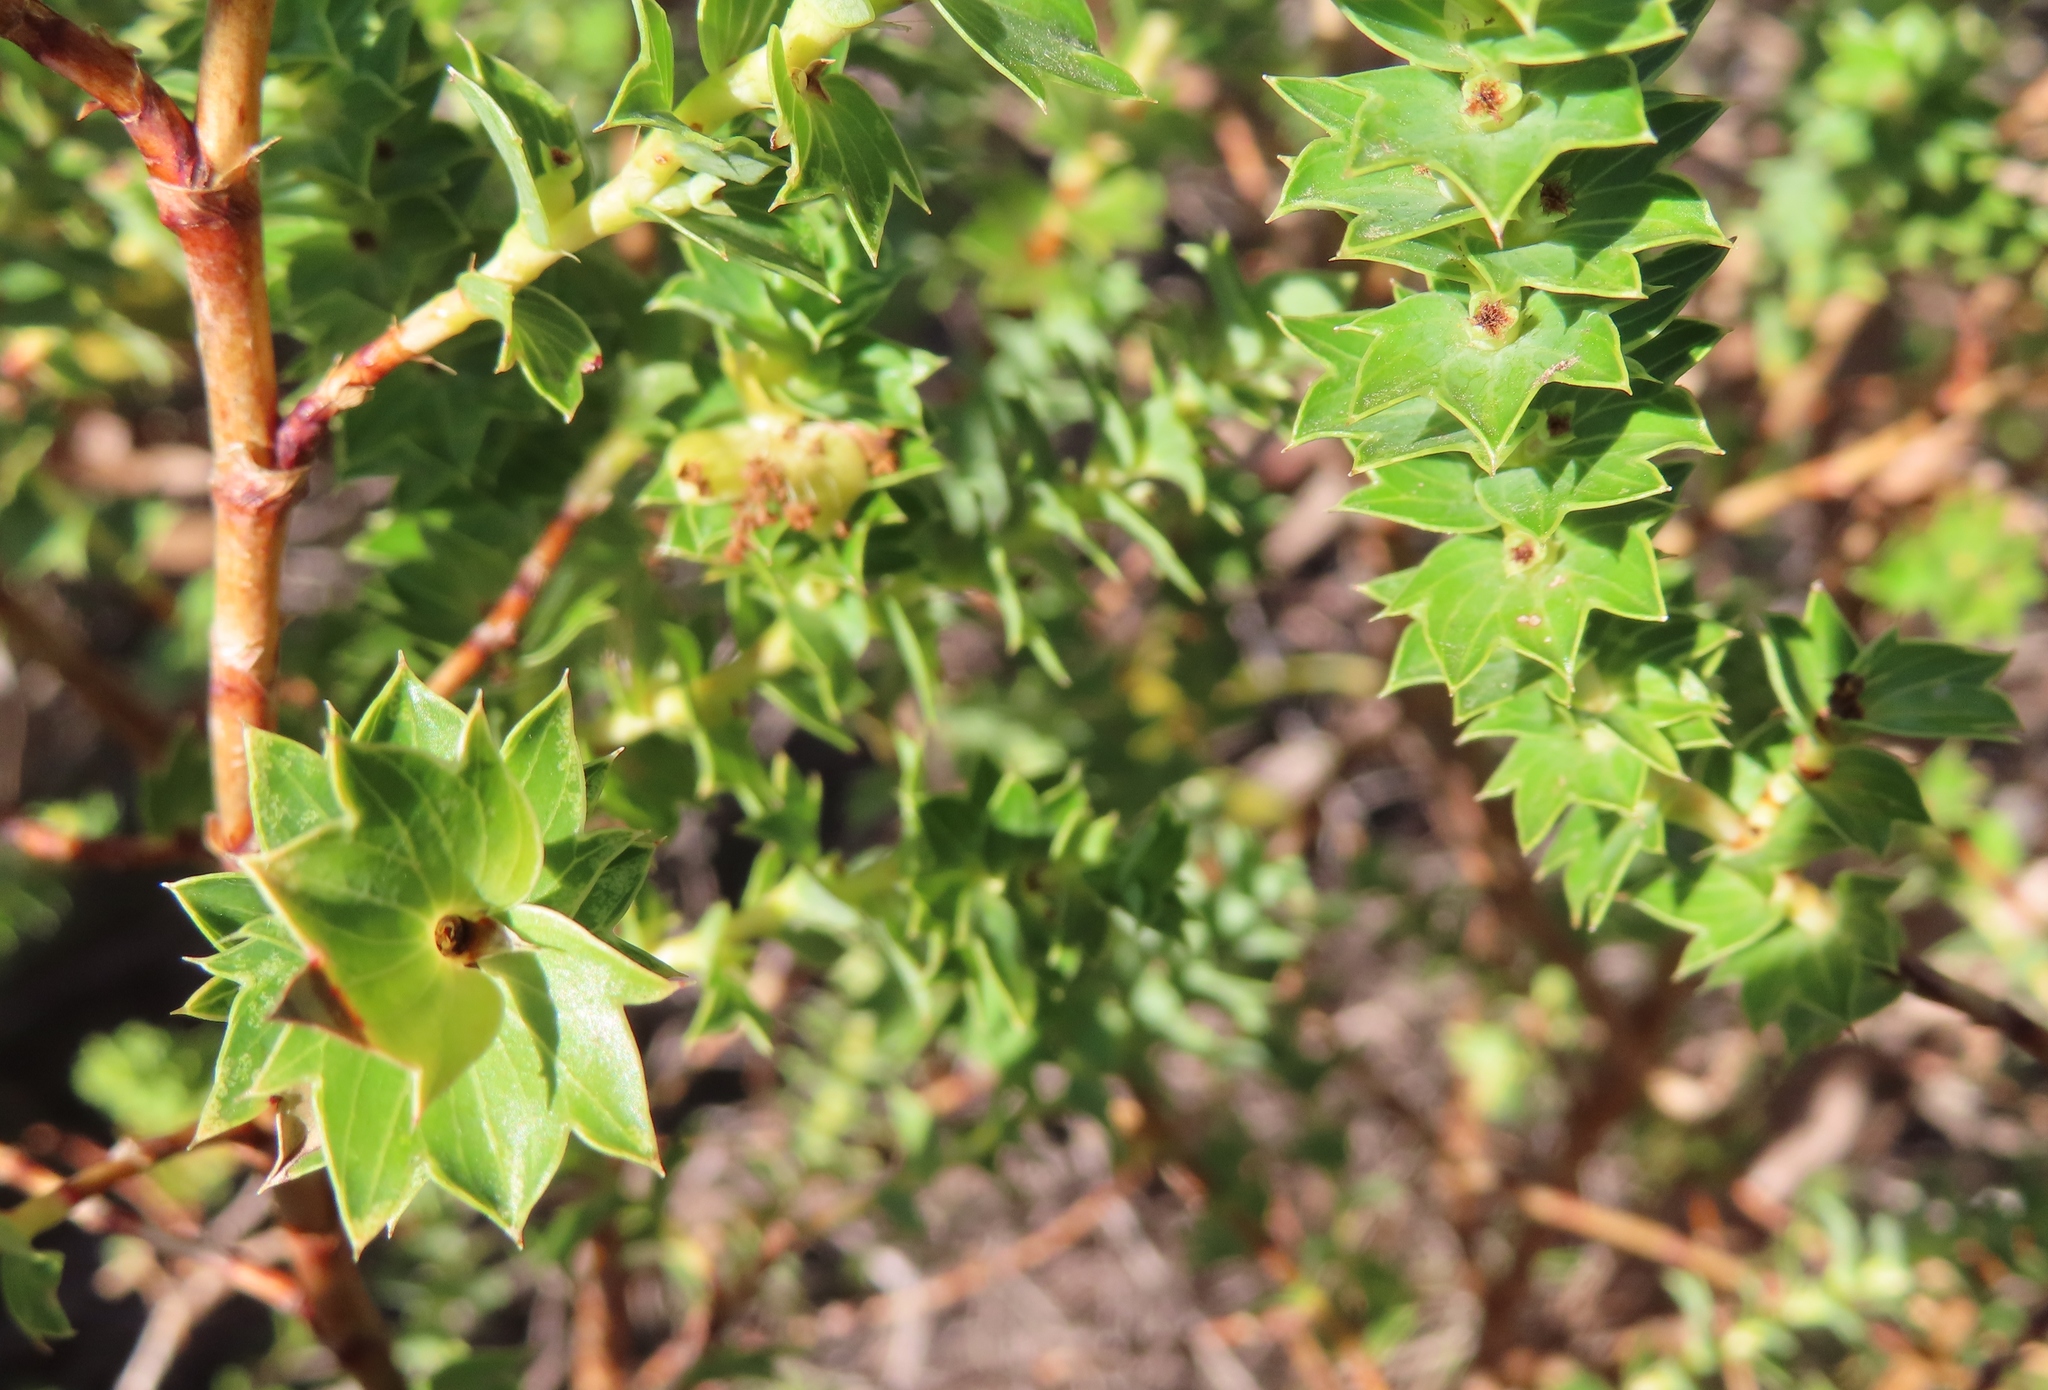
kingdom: Plantae
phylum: Tracheophyta
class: Magnoliopsida
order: Rosales
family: Rosaceae
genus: Cliffortia
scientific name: Cliffortia schlechteri
